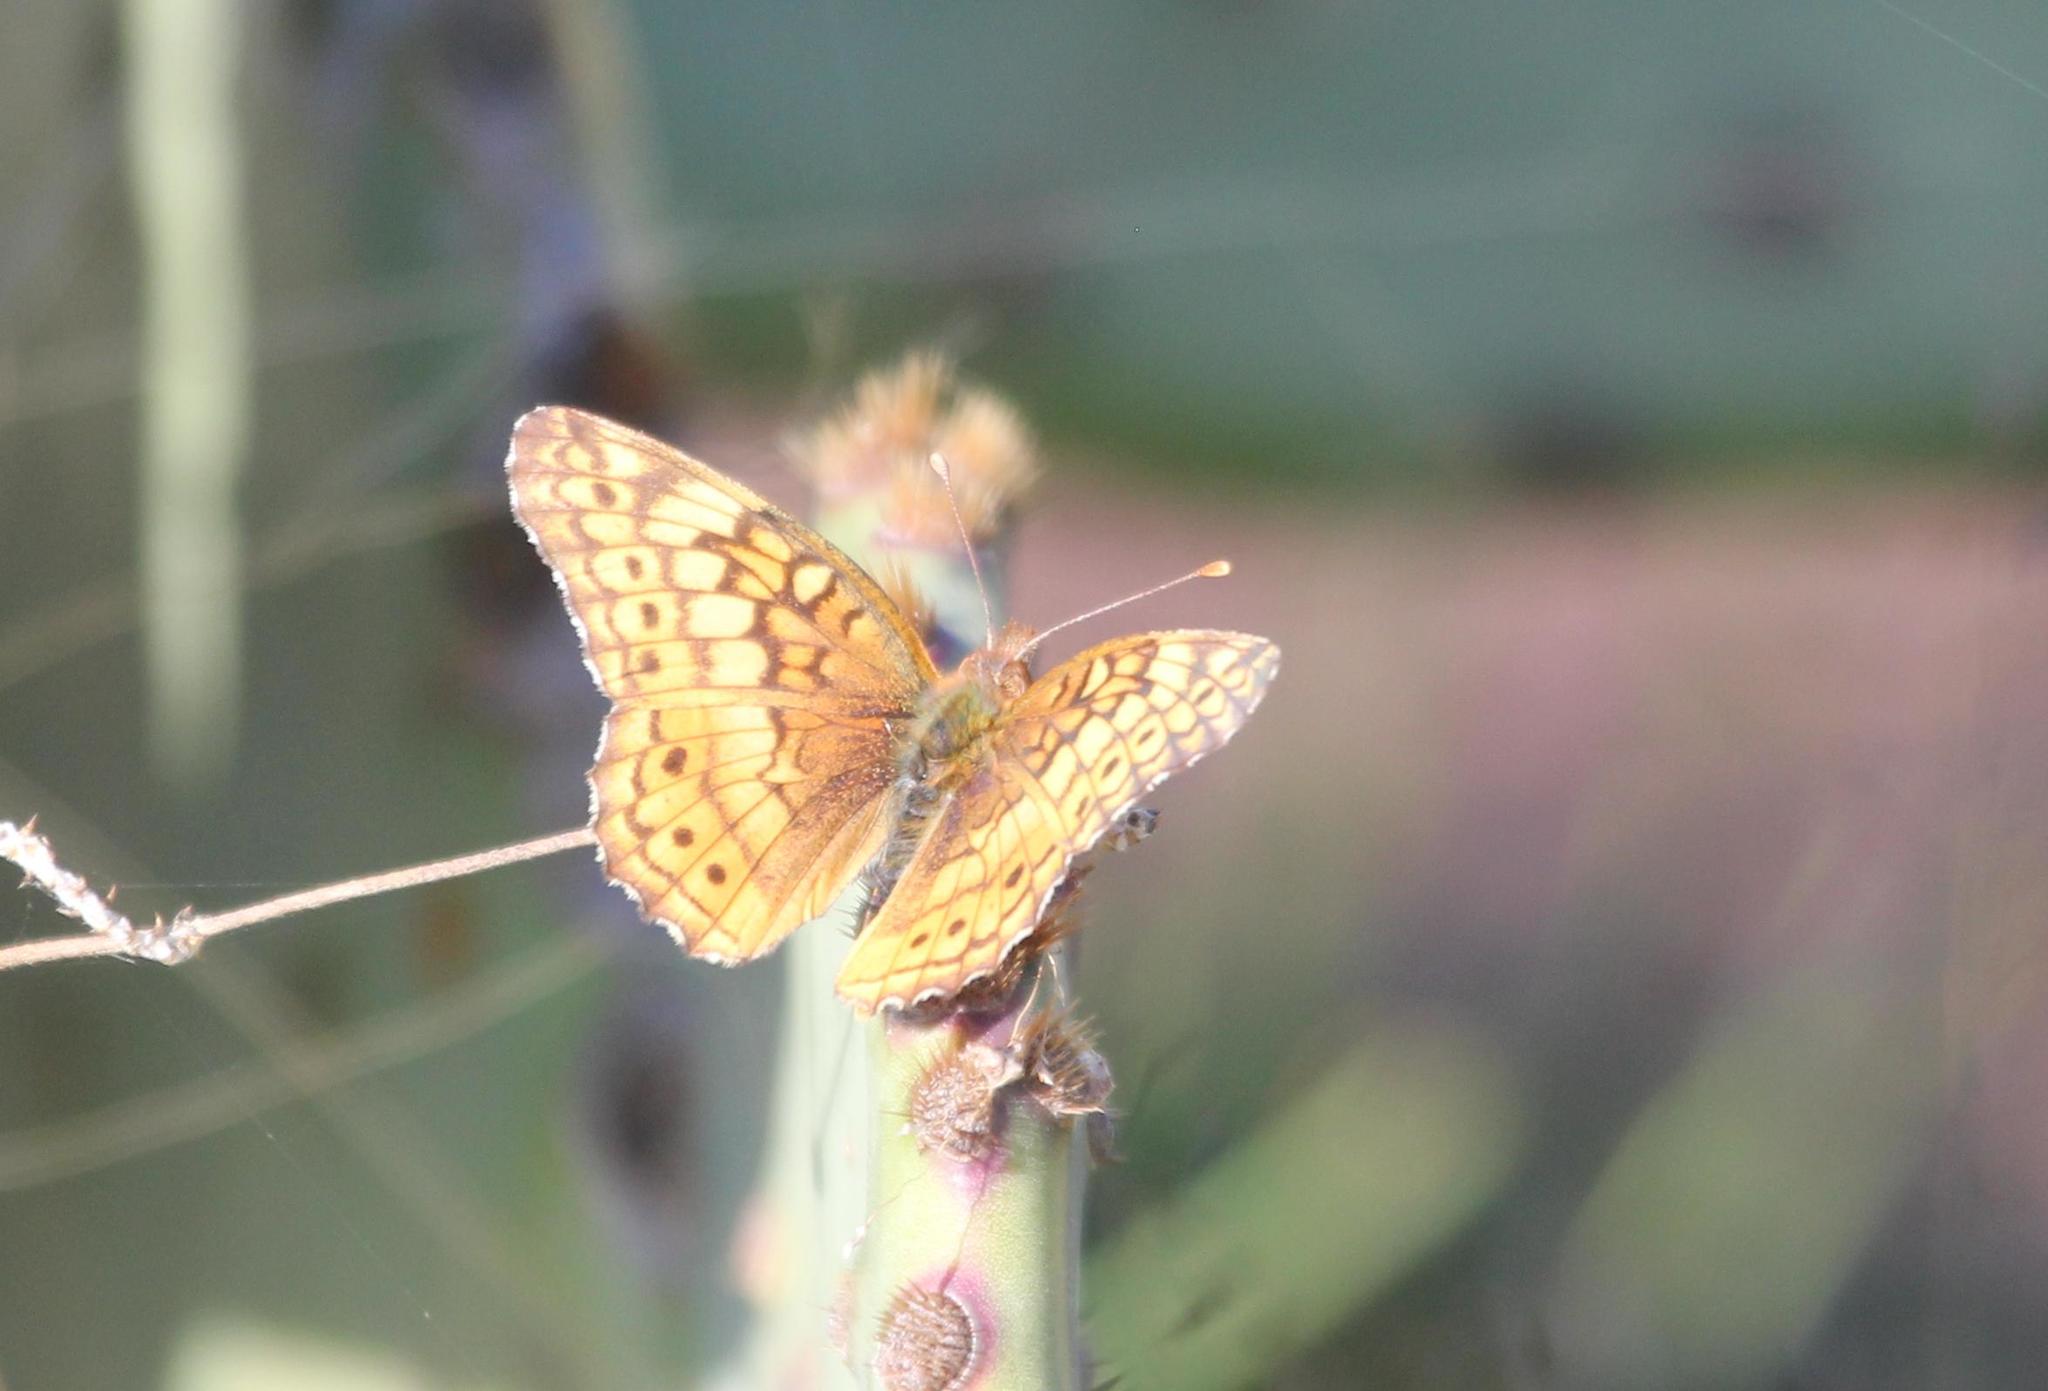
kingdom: Animalia
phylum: Arthropoda
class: Insecta
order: Lepidoptera
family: Nymphalidae
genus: Euptoieta
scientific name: Euptoieta claudia
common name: Variegated fritillary
